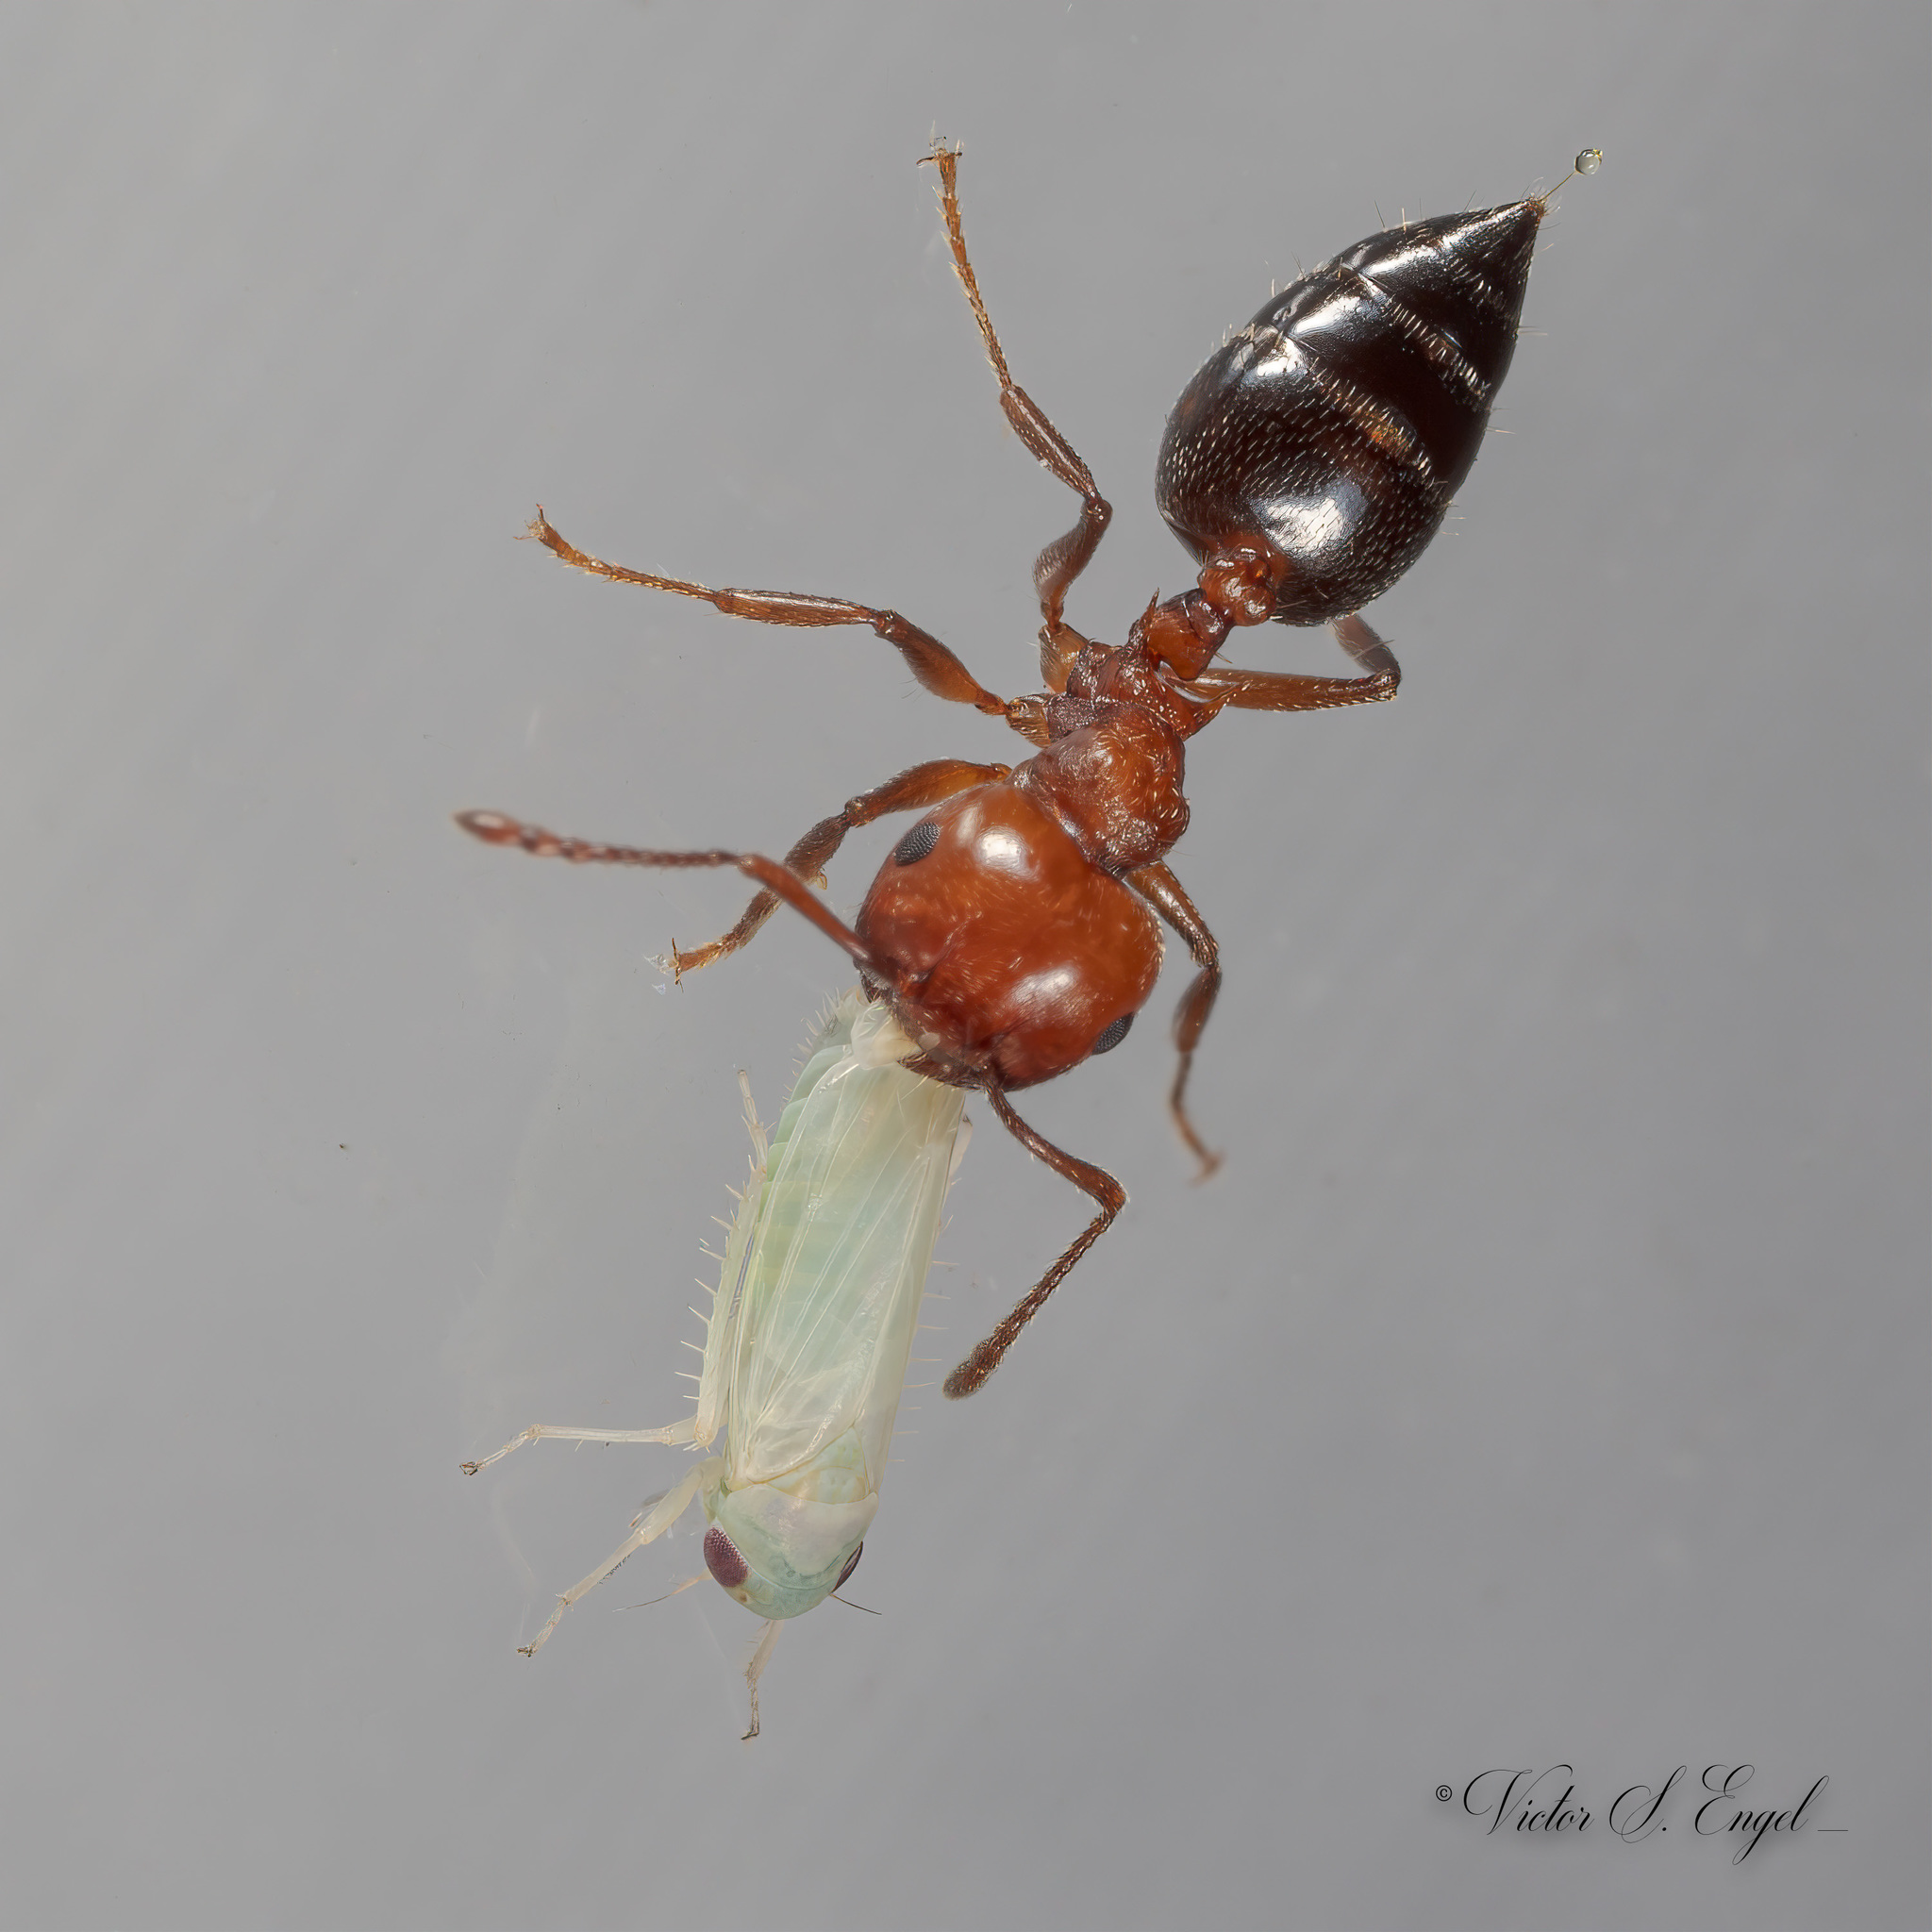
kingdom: Animalia
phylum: Arthropoda
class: Insecta
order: Hymenoptera
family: Formicidae
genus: Crematogaster
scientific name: Crematogaster laeviuscula
